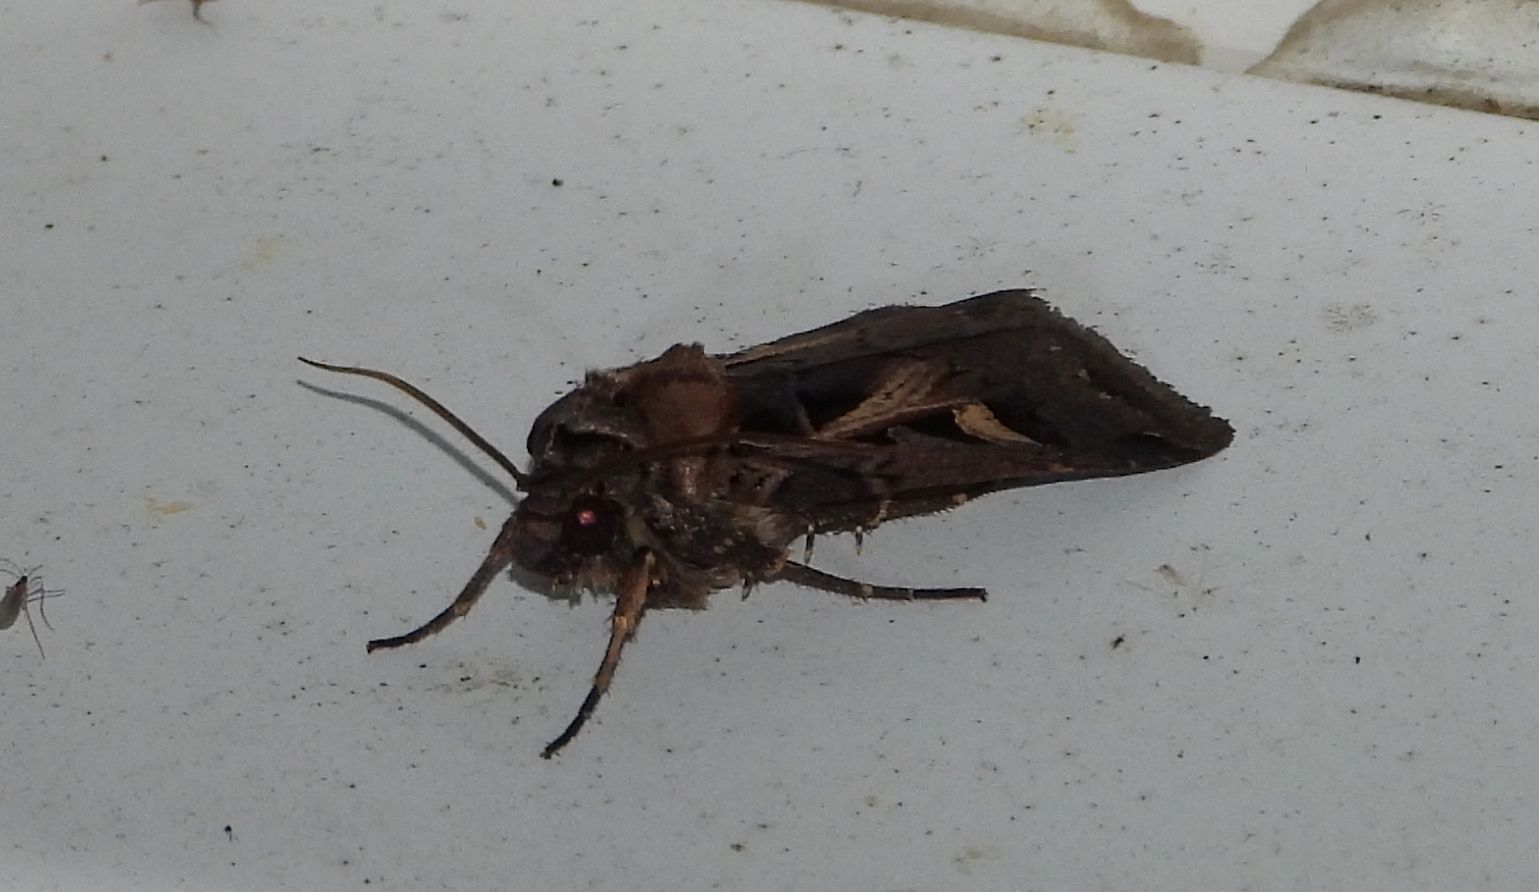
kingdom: Animalia
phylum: Arthropoda
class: Insecta
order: Lepidoptera
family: Noctuidae
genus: Feltia
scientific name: Feltia herilis
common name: Master's dart
